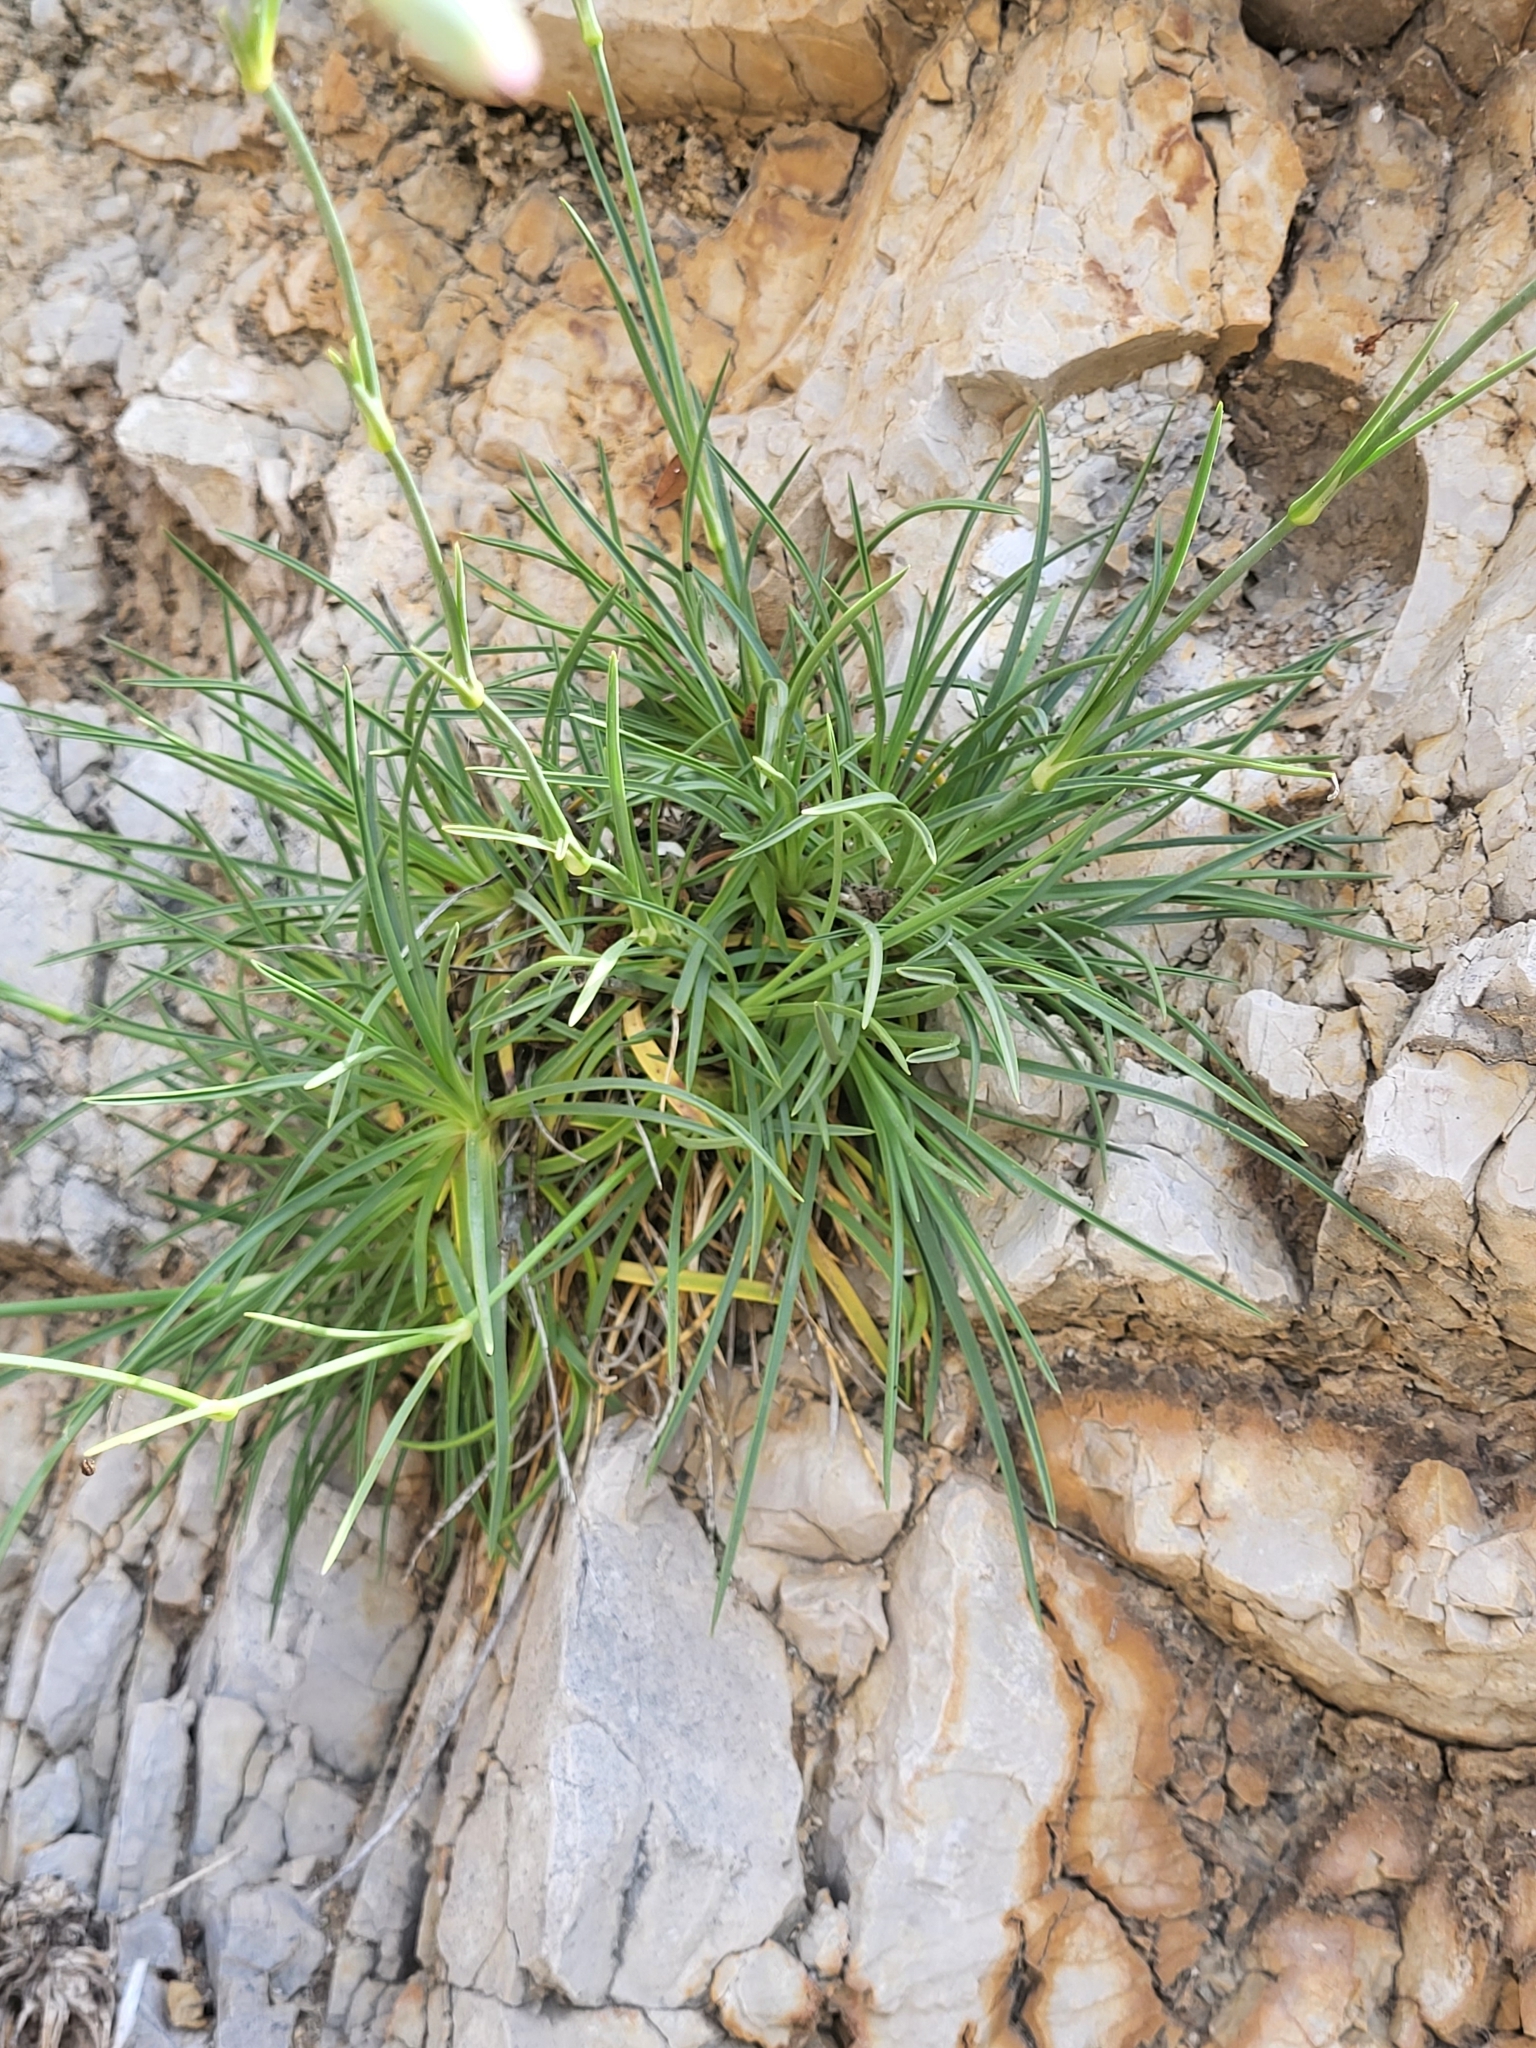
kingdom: Plantae
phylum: Tracheophyta
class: Magnoliopsida
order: Caryophyllales
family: Caryophyllaceae
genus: Dianthus
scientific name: Dianthus sylvestris
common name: Wood pink
